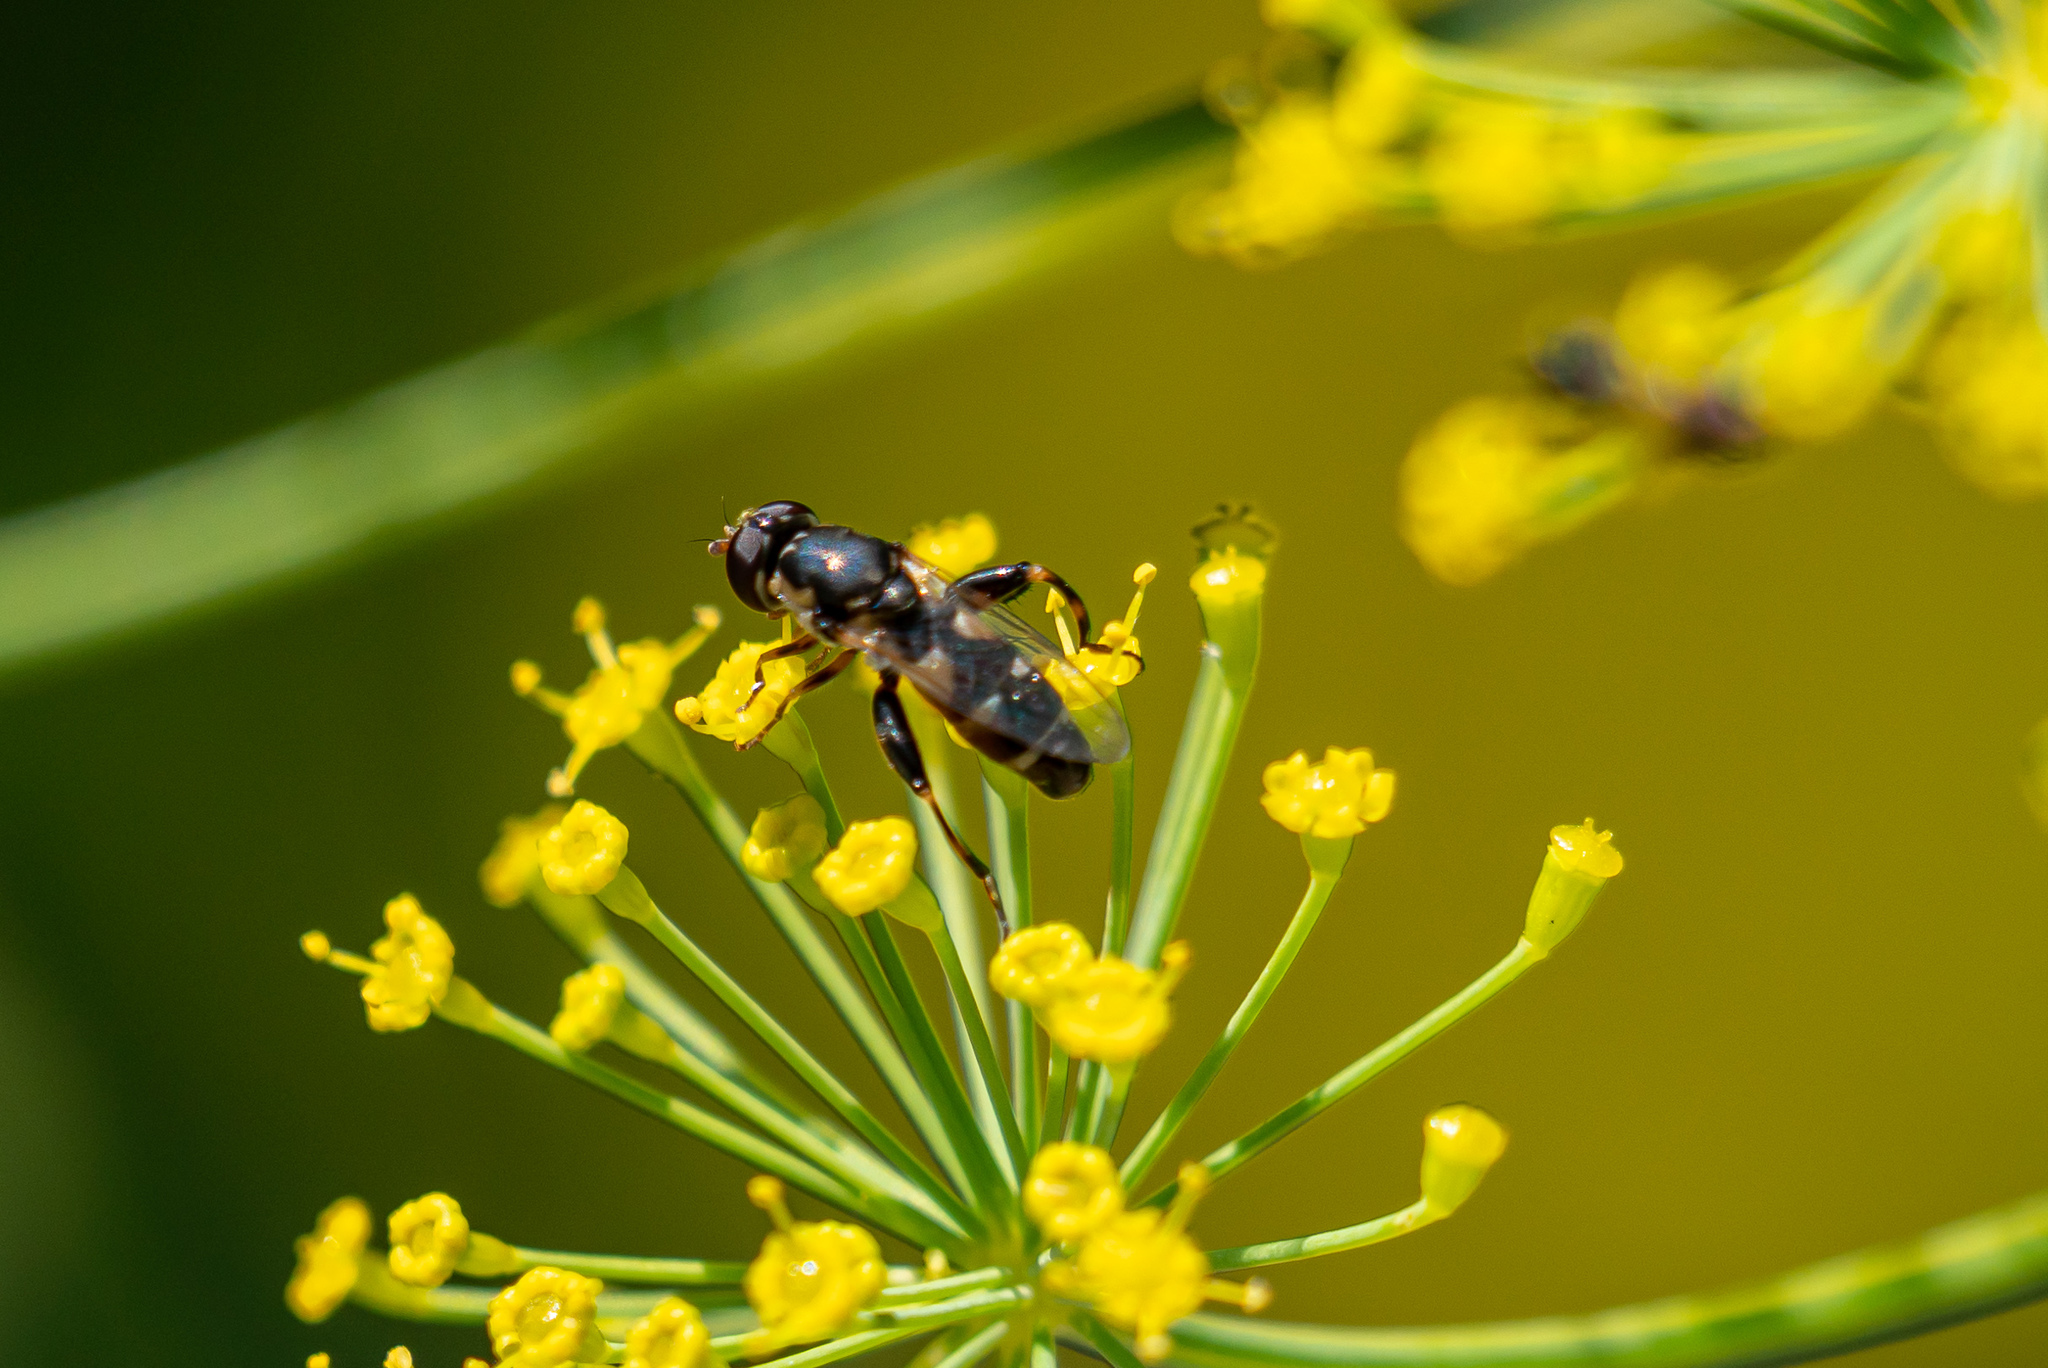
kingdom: Animalia
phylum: Arthropoda
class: Insecta
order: Diptera
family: Syrphidae
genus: Syritta
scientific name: Syritta pipiens
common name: Hover fly
